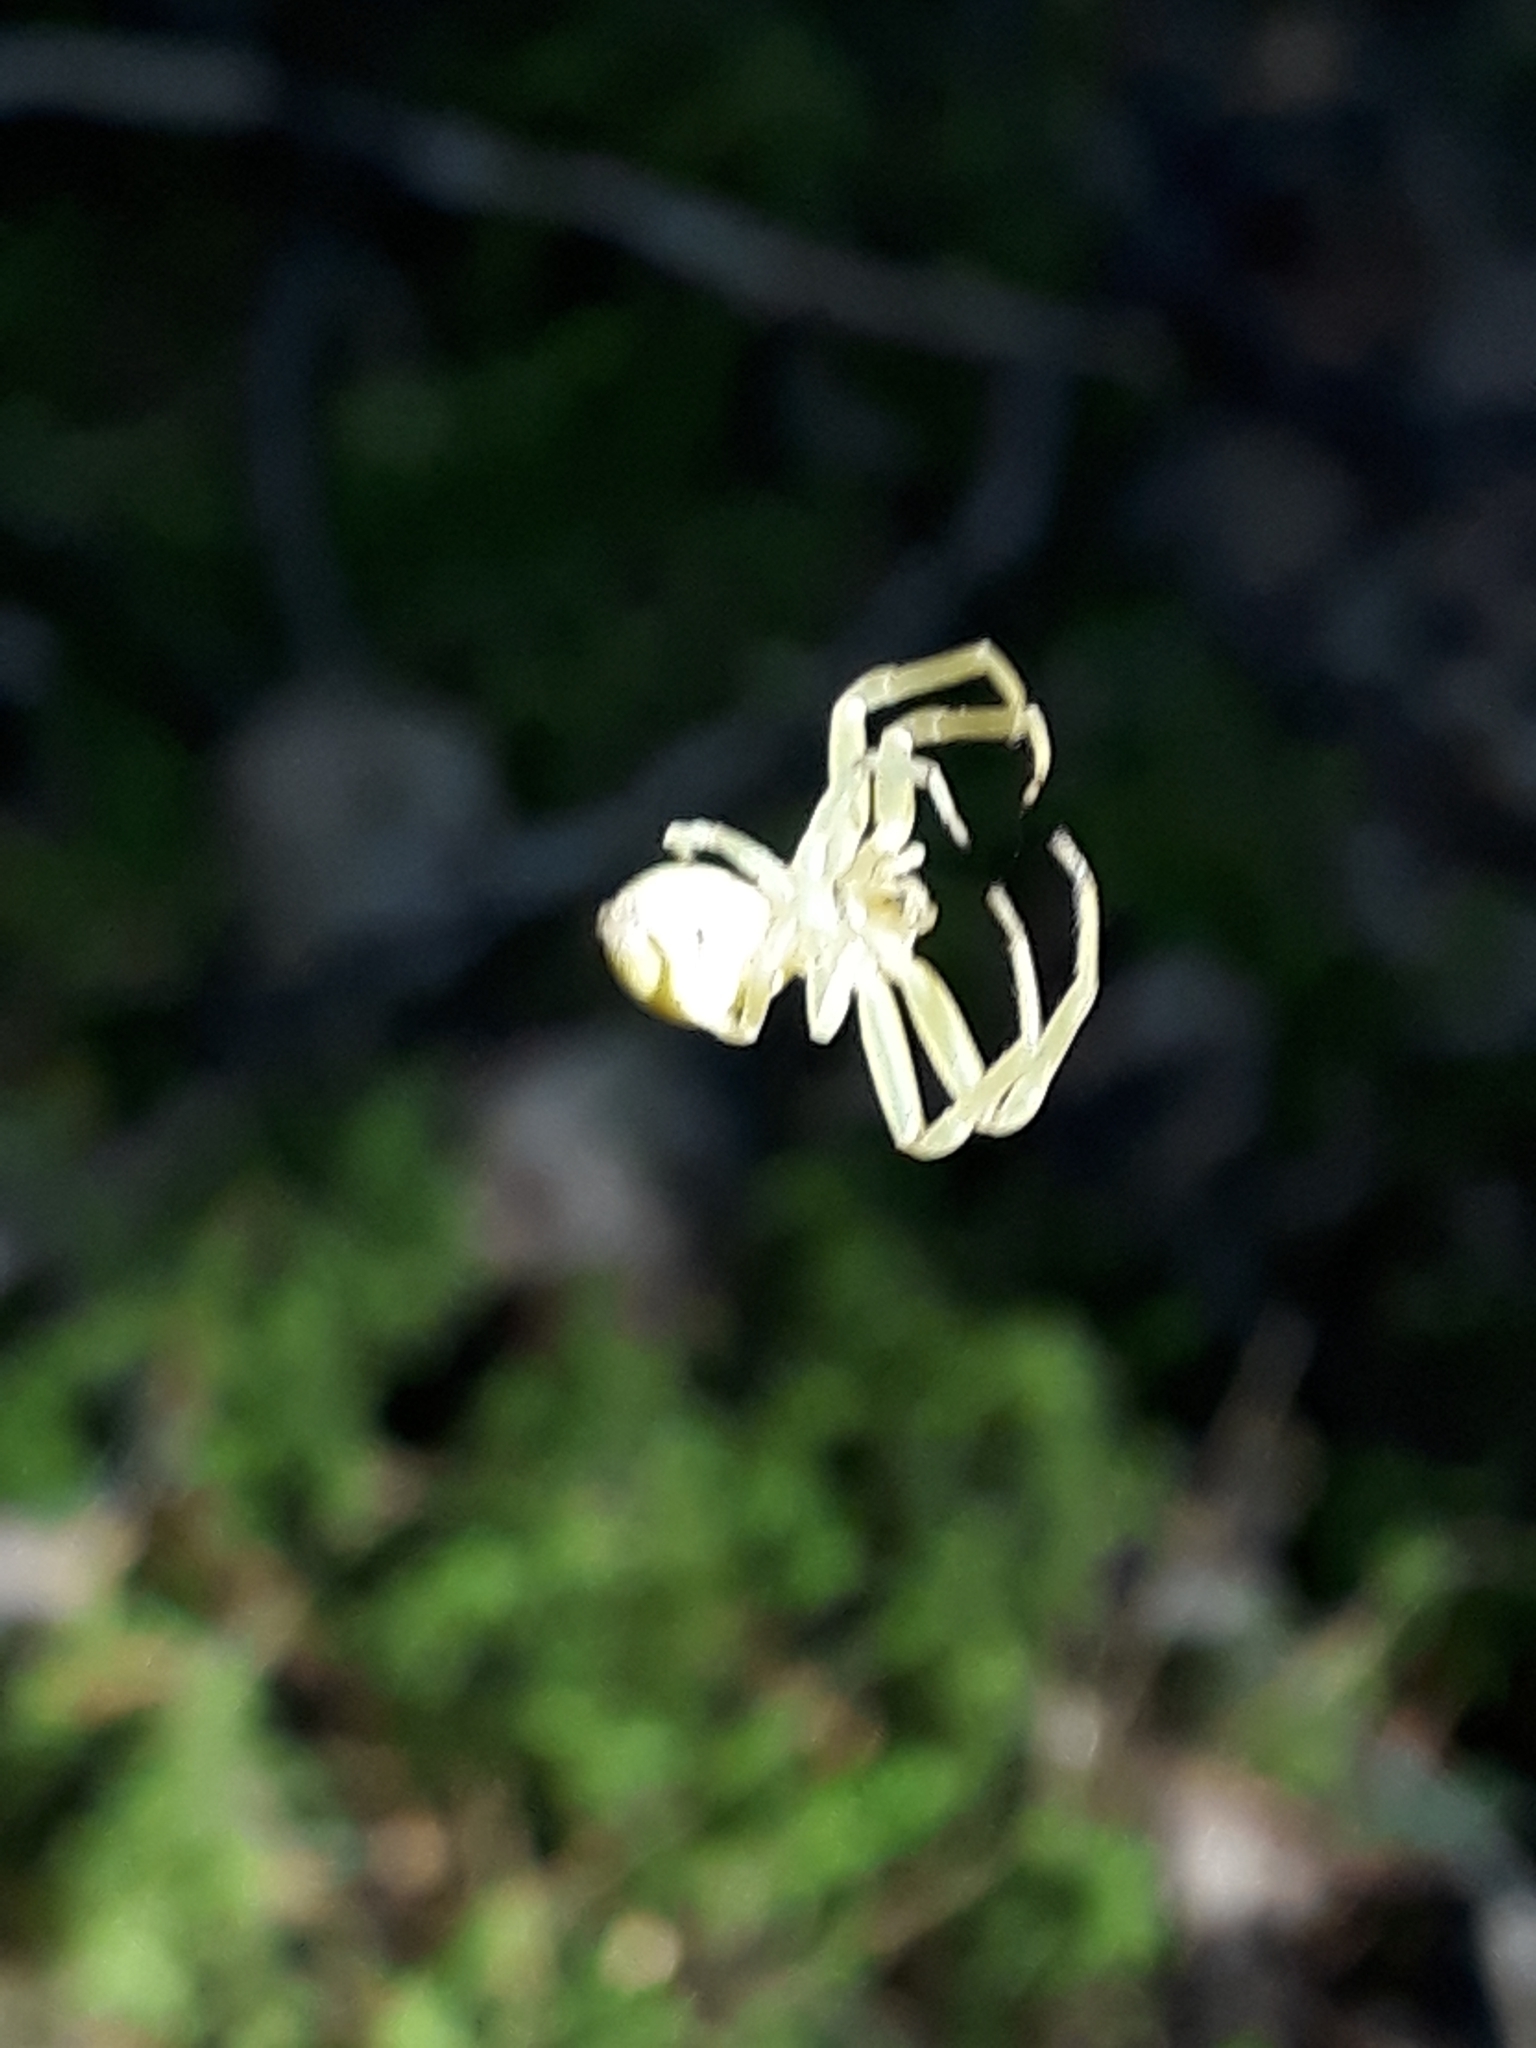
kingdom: Animalia
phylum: Arthropoda
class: Arachnida
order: Araneae
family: Thomisidae
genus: Misumena
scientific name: Misumena vatia
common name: Goldenrod crab spider
